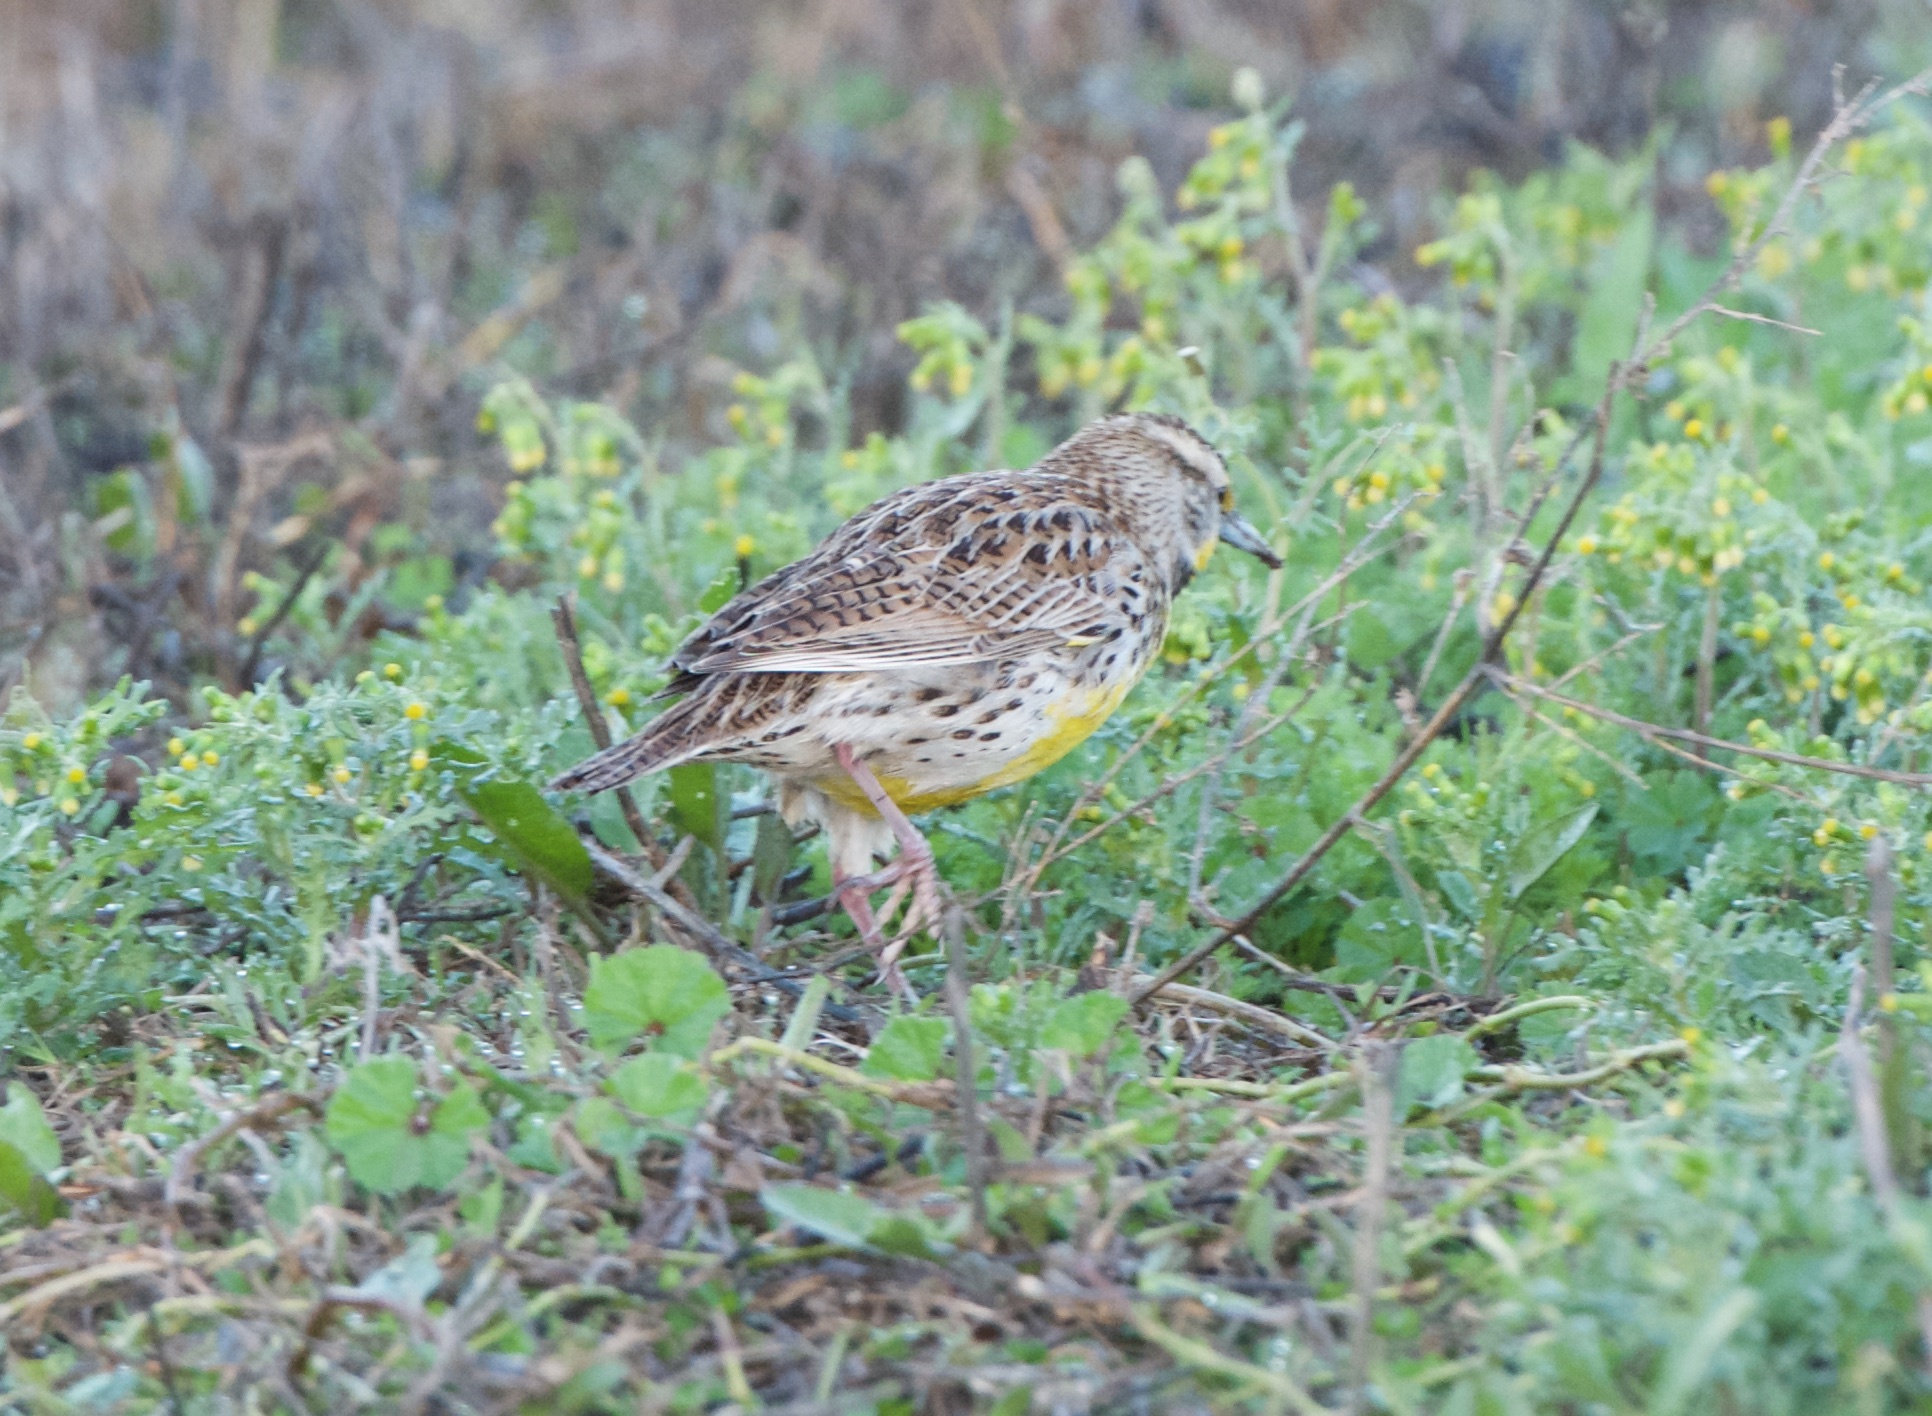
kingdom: Animalia
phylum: Chordata
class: Aves
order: Passeriformes
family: Icteridae
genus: Sturnella
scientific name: Sturnella neglecta
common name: Western meadowlark
